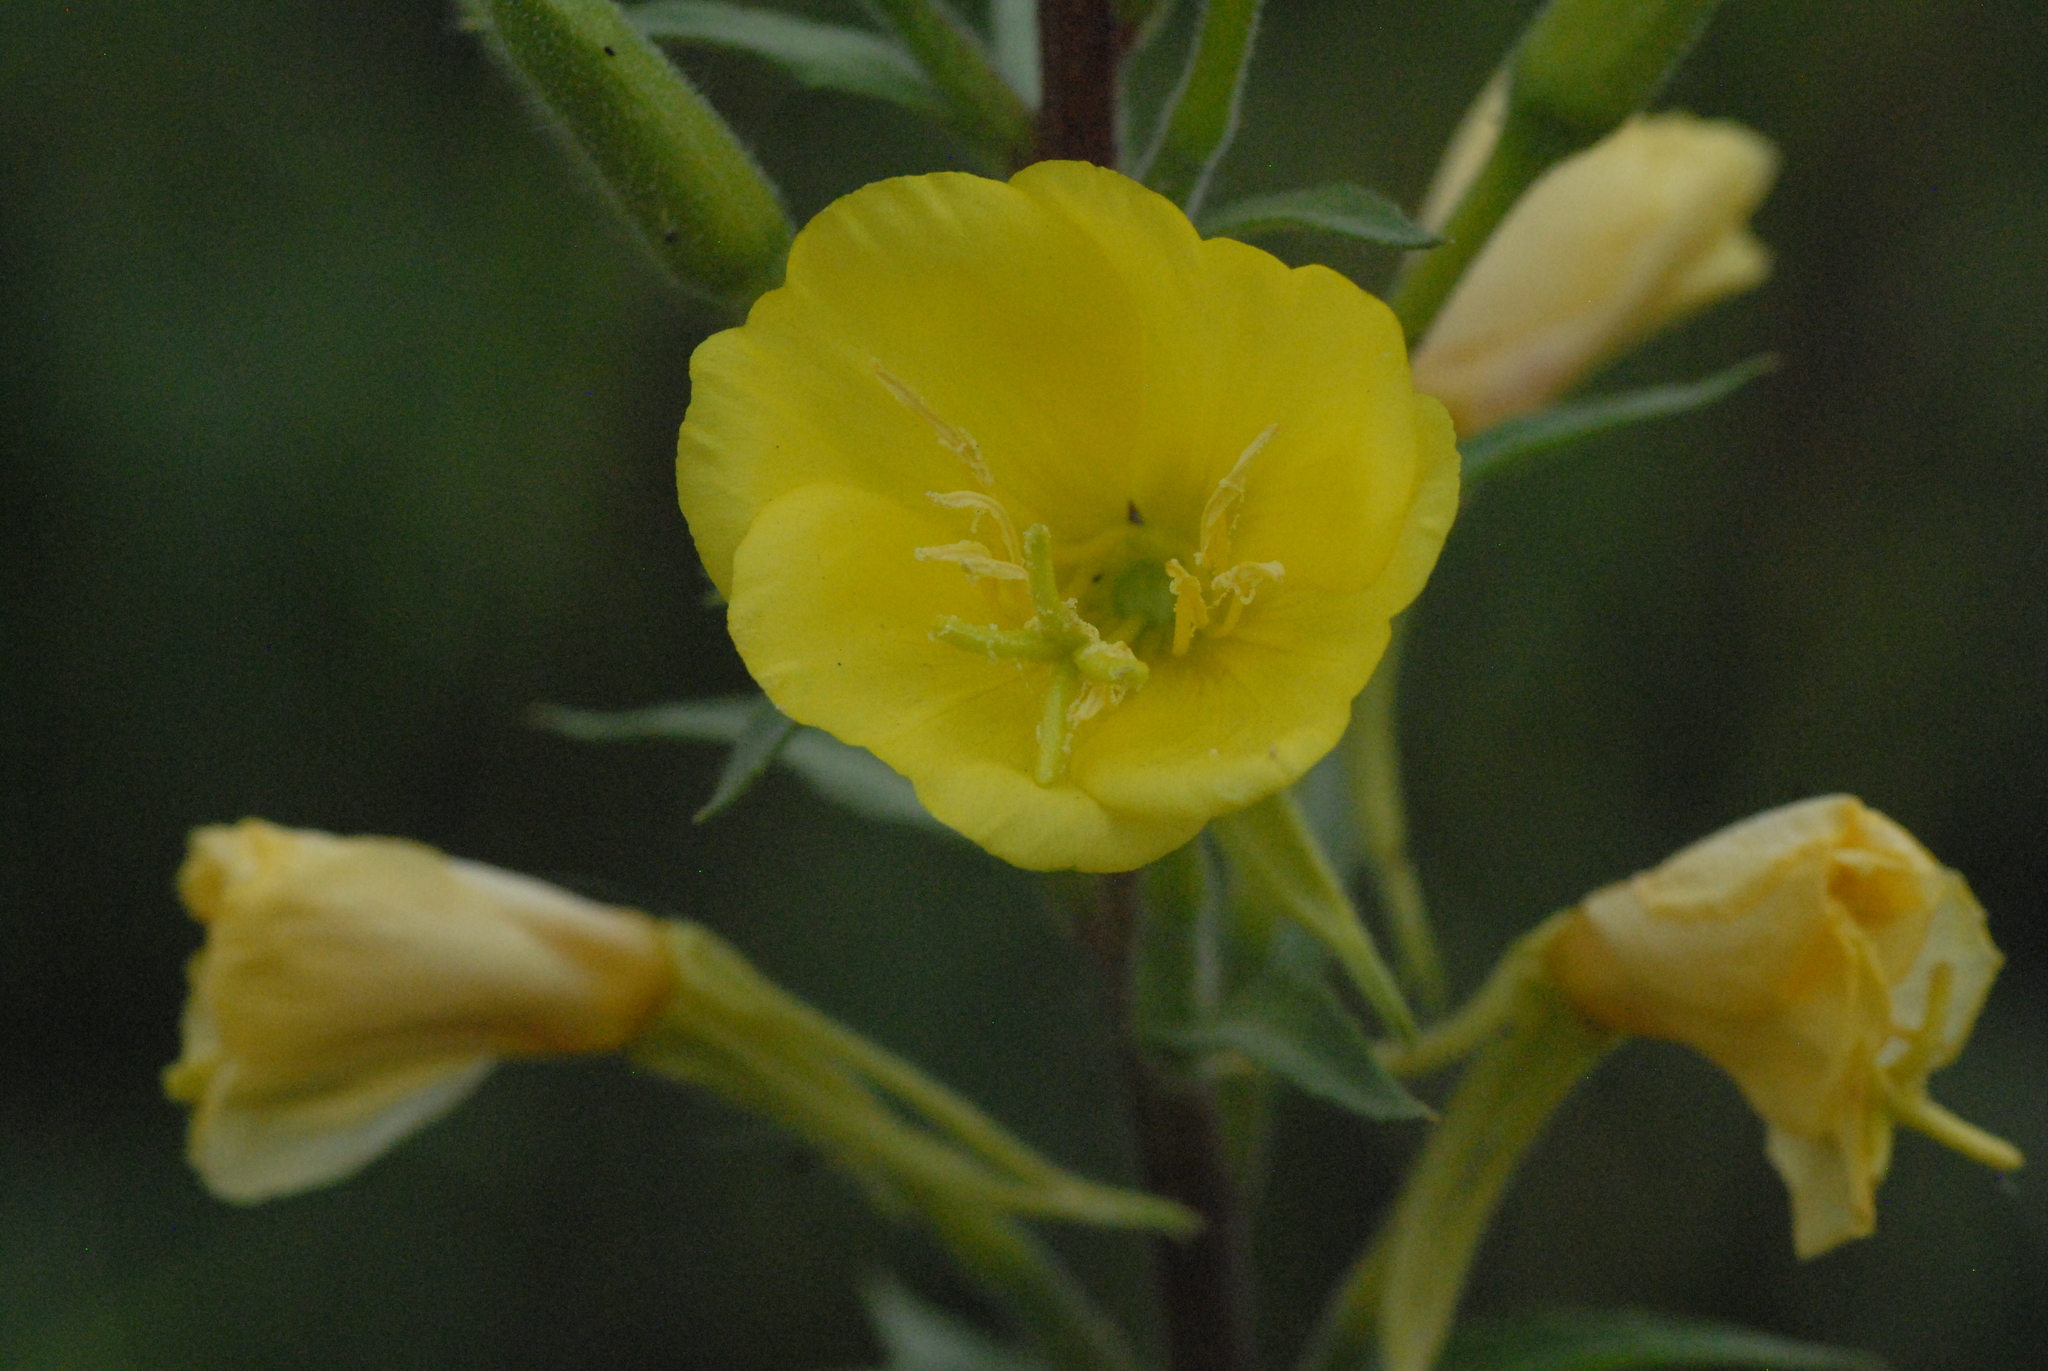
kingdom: Plantae
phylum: Tracheophyta
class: Magnoliopsida
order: Myrtales
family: Onagraceae
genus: Oenothera
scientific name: Oenothera rubricaulis
